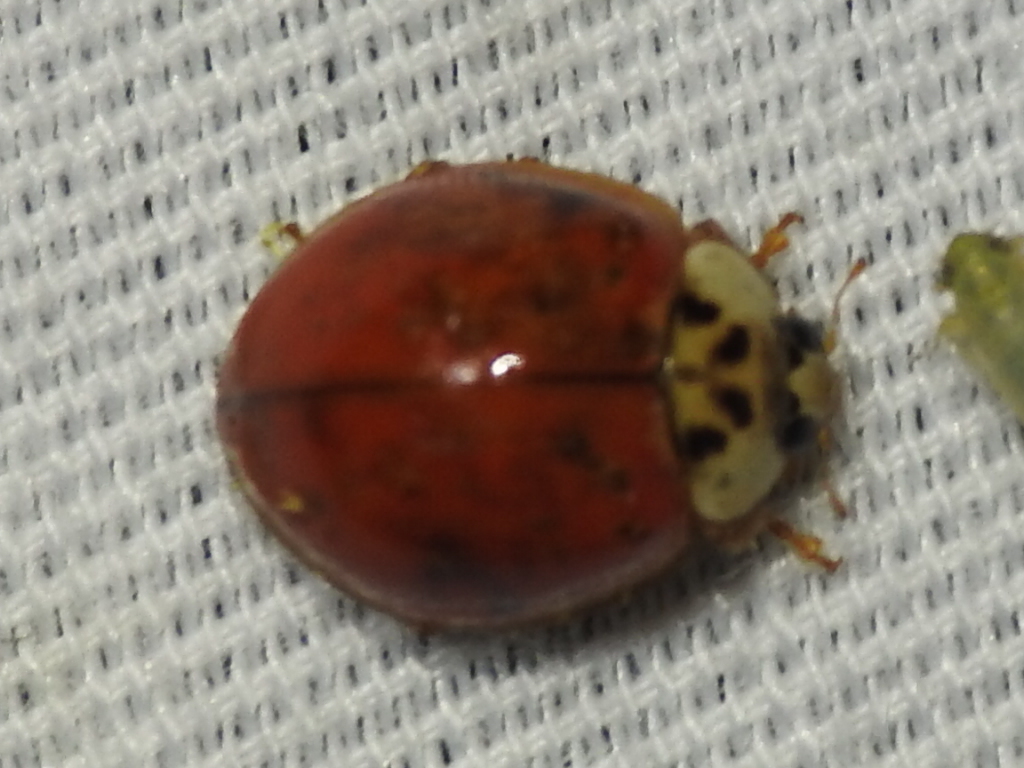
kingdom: Animalia
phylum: Arthropoda
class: Insecta
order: Coleoptera
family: Coccinellidae
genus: Harmonia
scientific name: Harmonia axyridis
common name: Harlequin ladybird
